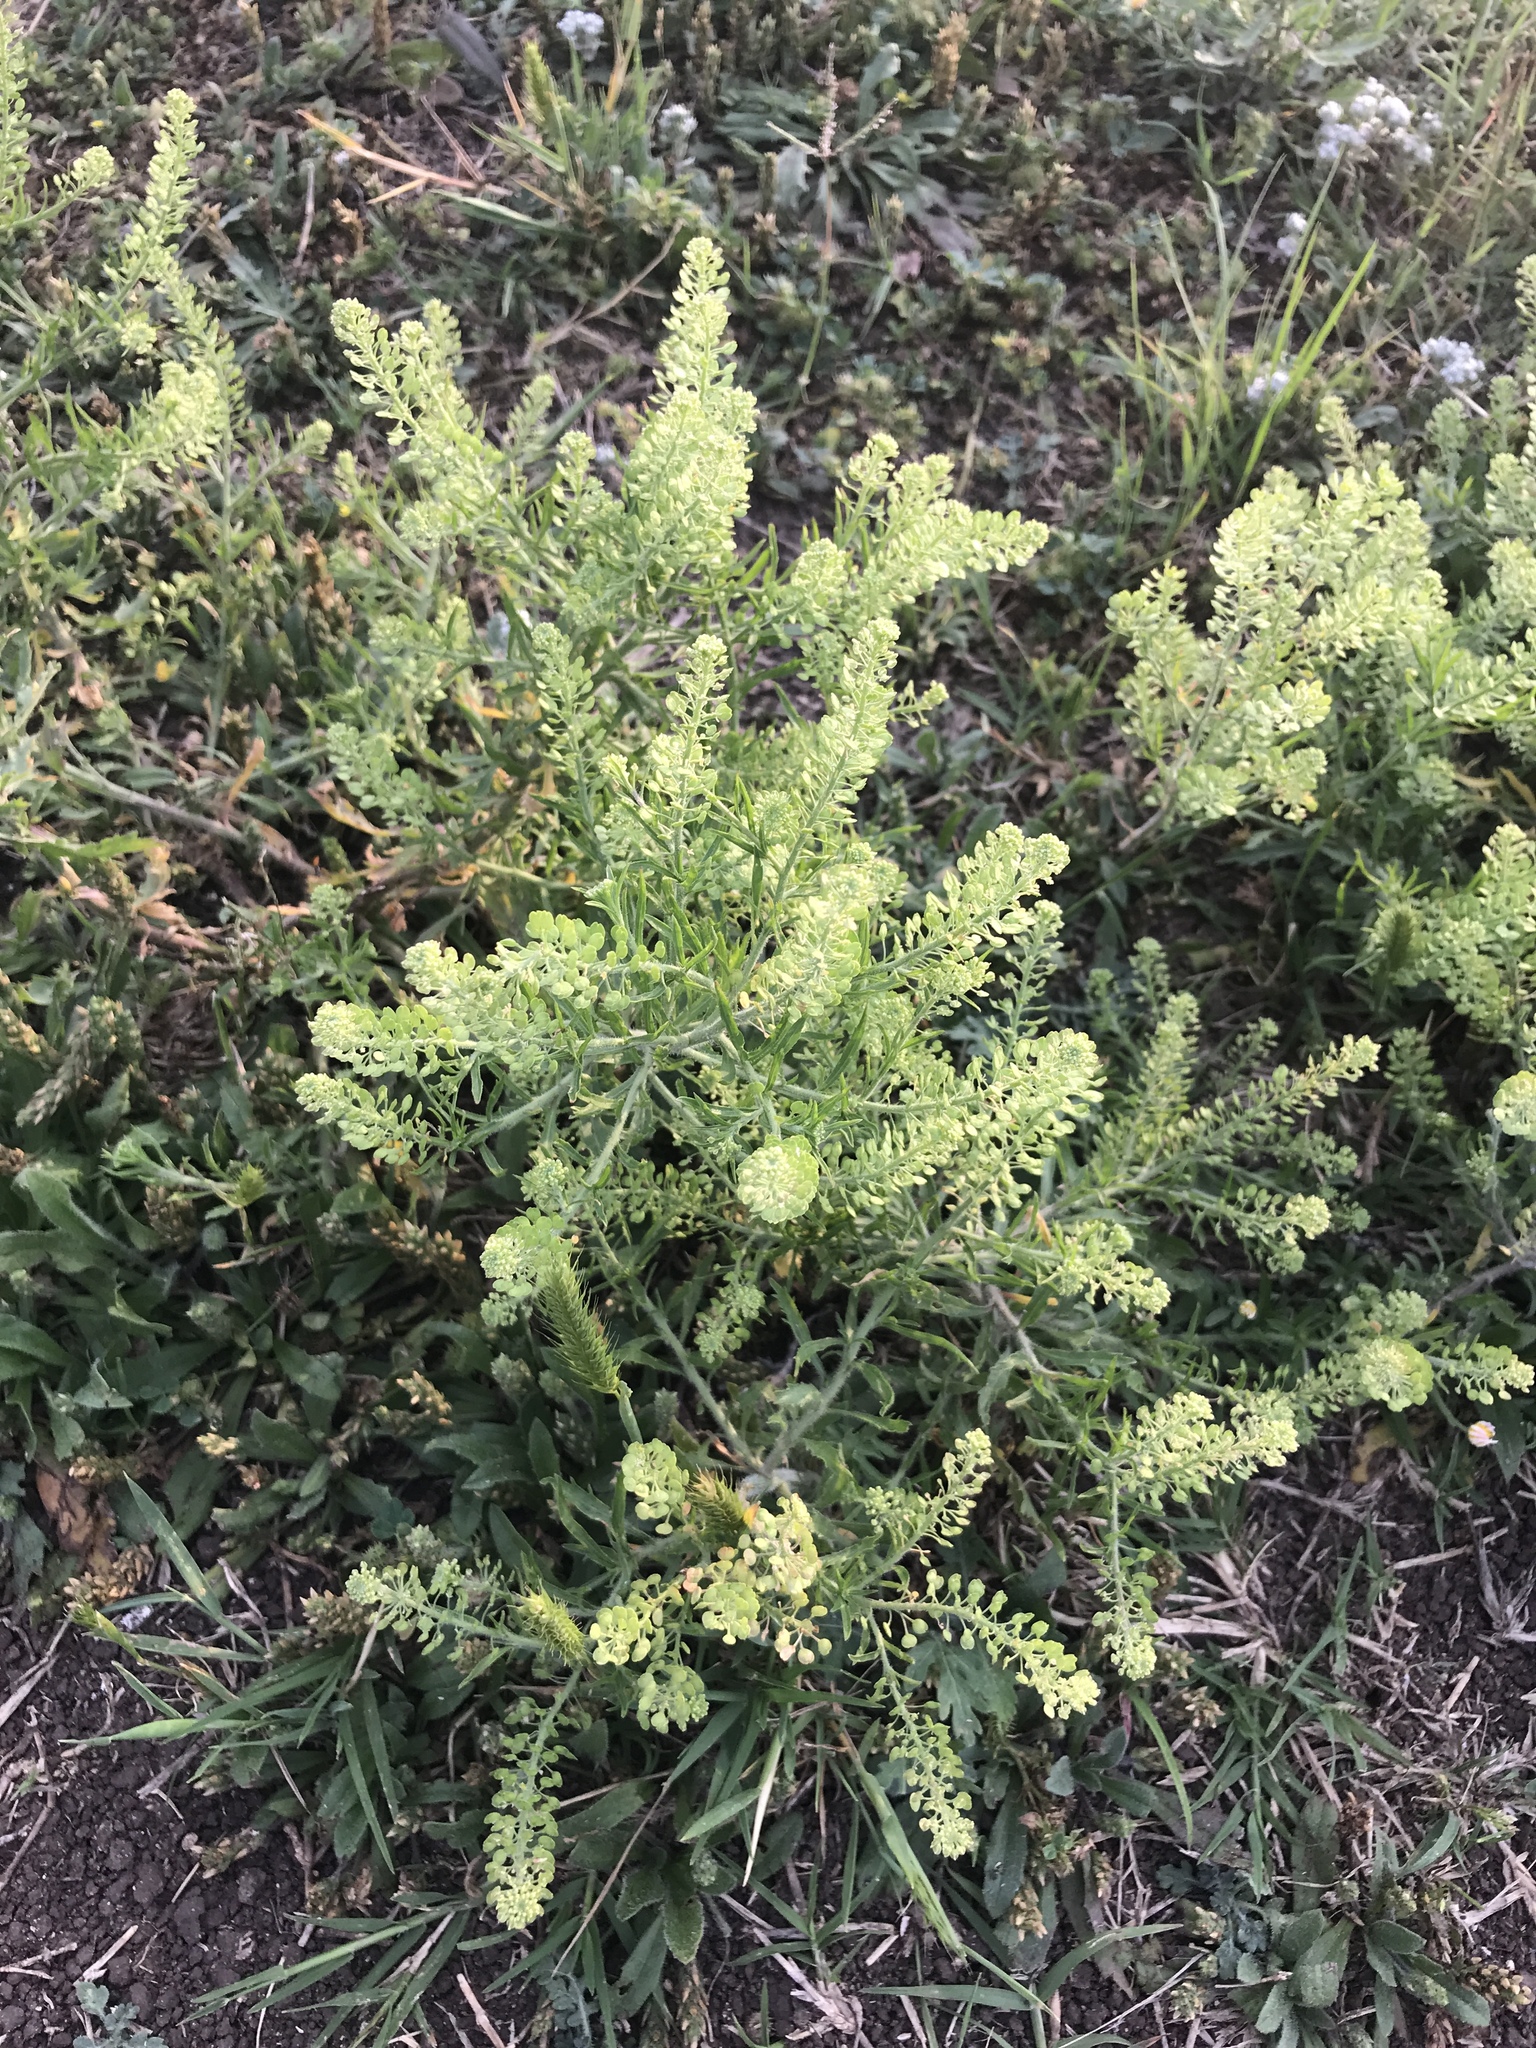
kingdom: Plantae
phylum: Tracheophyta
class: Magnoliopsida
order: Brassicales
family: Brassicaceae
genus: Lepidium
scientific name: Lepidium virginicum
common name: Least pepperwort
